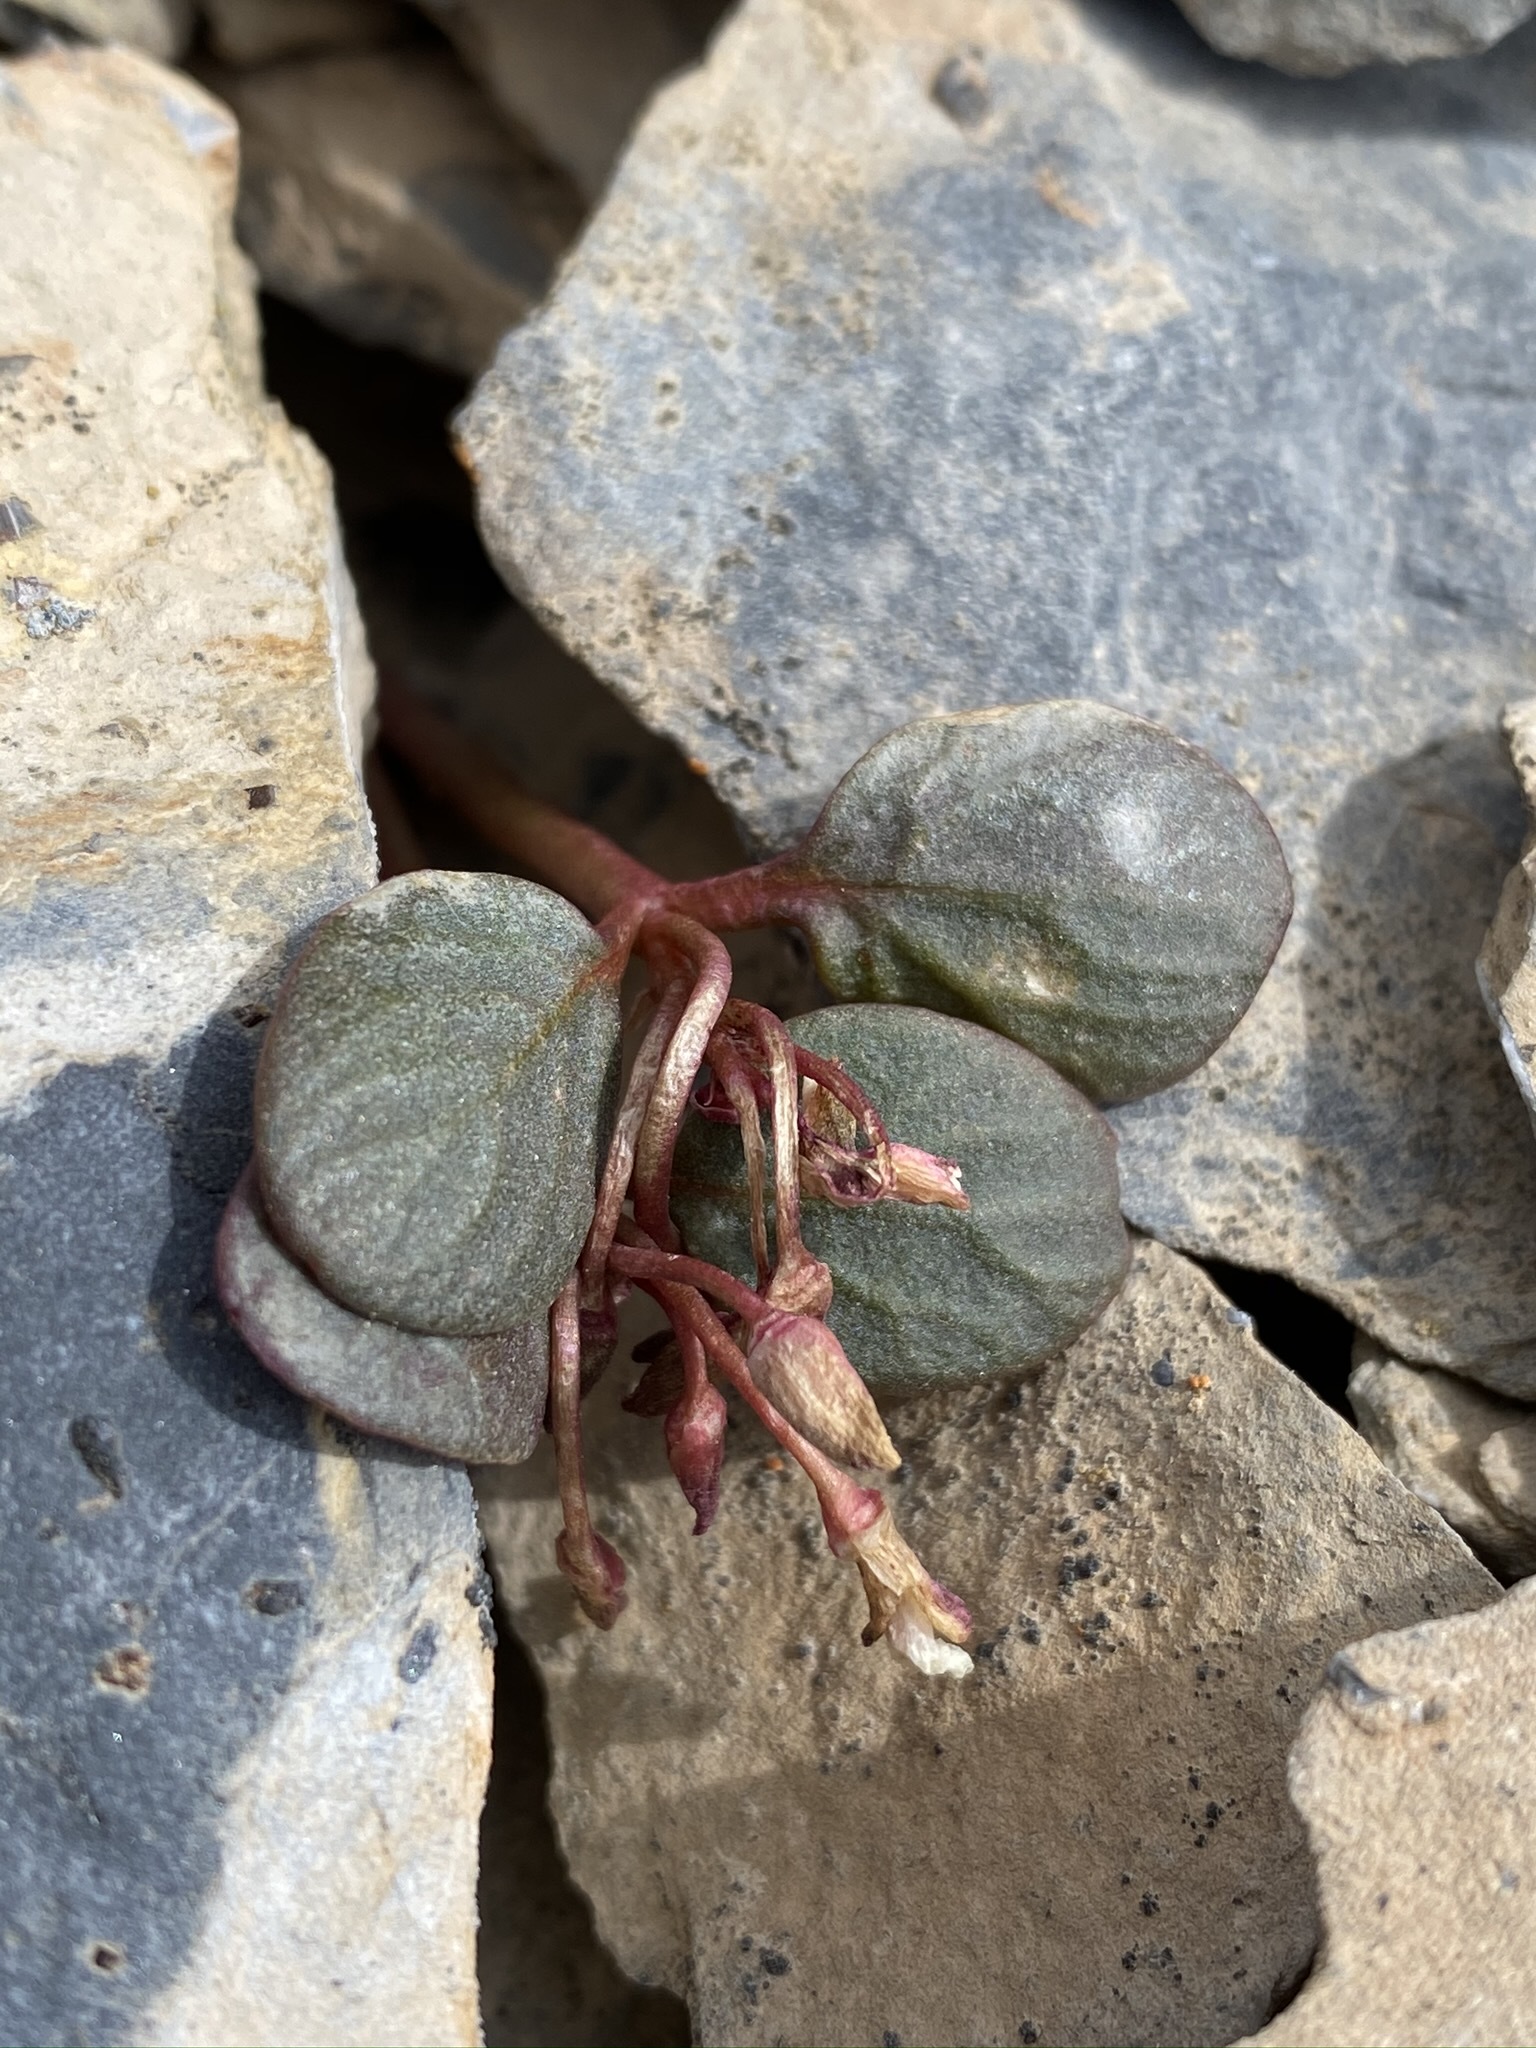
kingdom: Plantae
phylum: Tracheophyta
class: Magnoliopsida
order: Caryophyllales
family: Montiaceae
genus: Claytonia
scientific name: Claytonia umbellata
